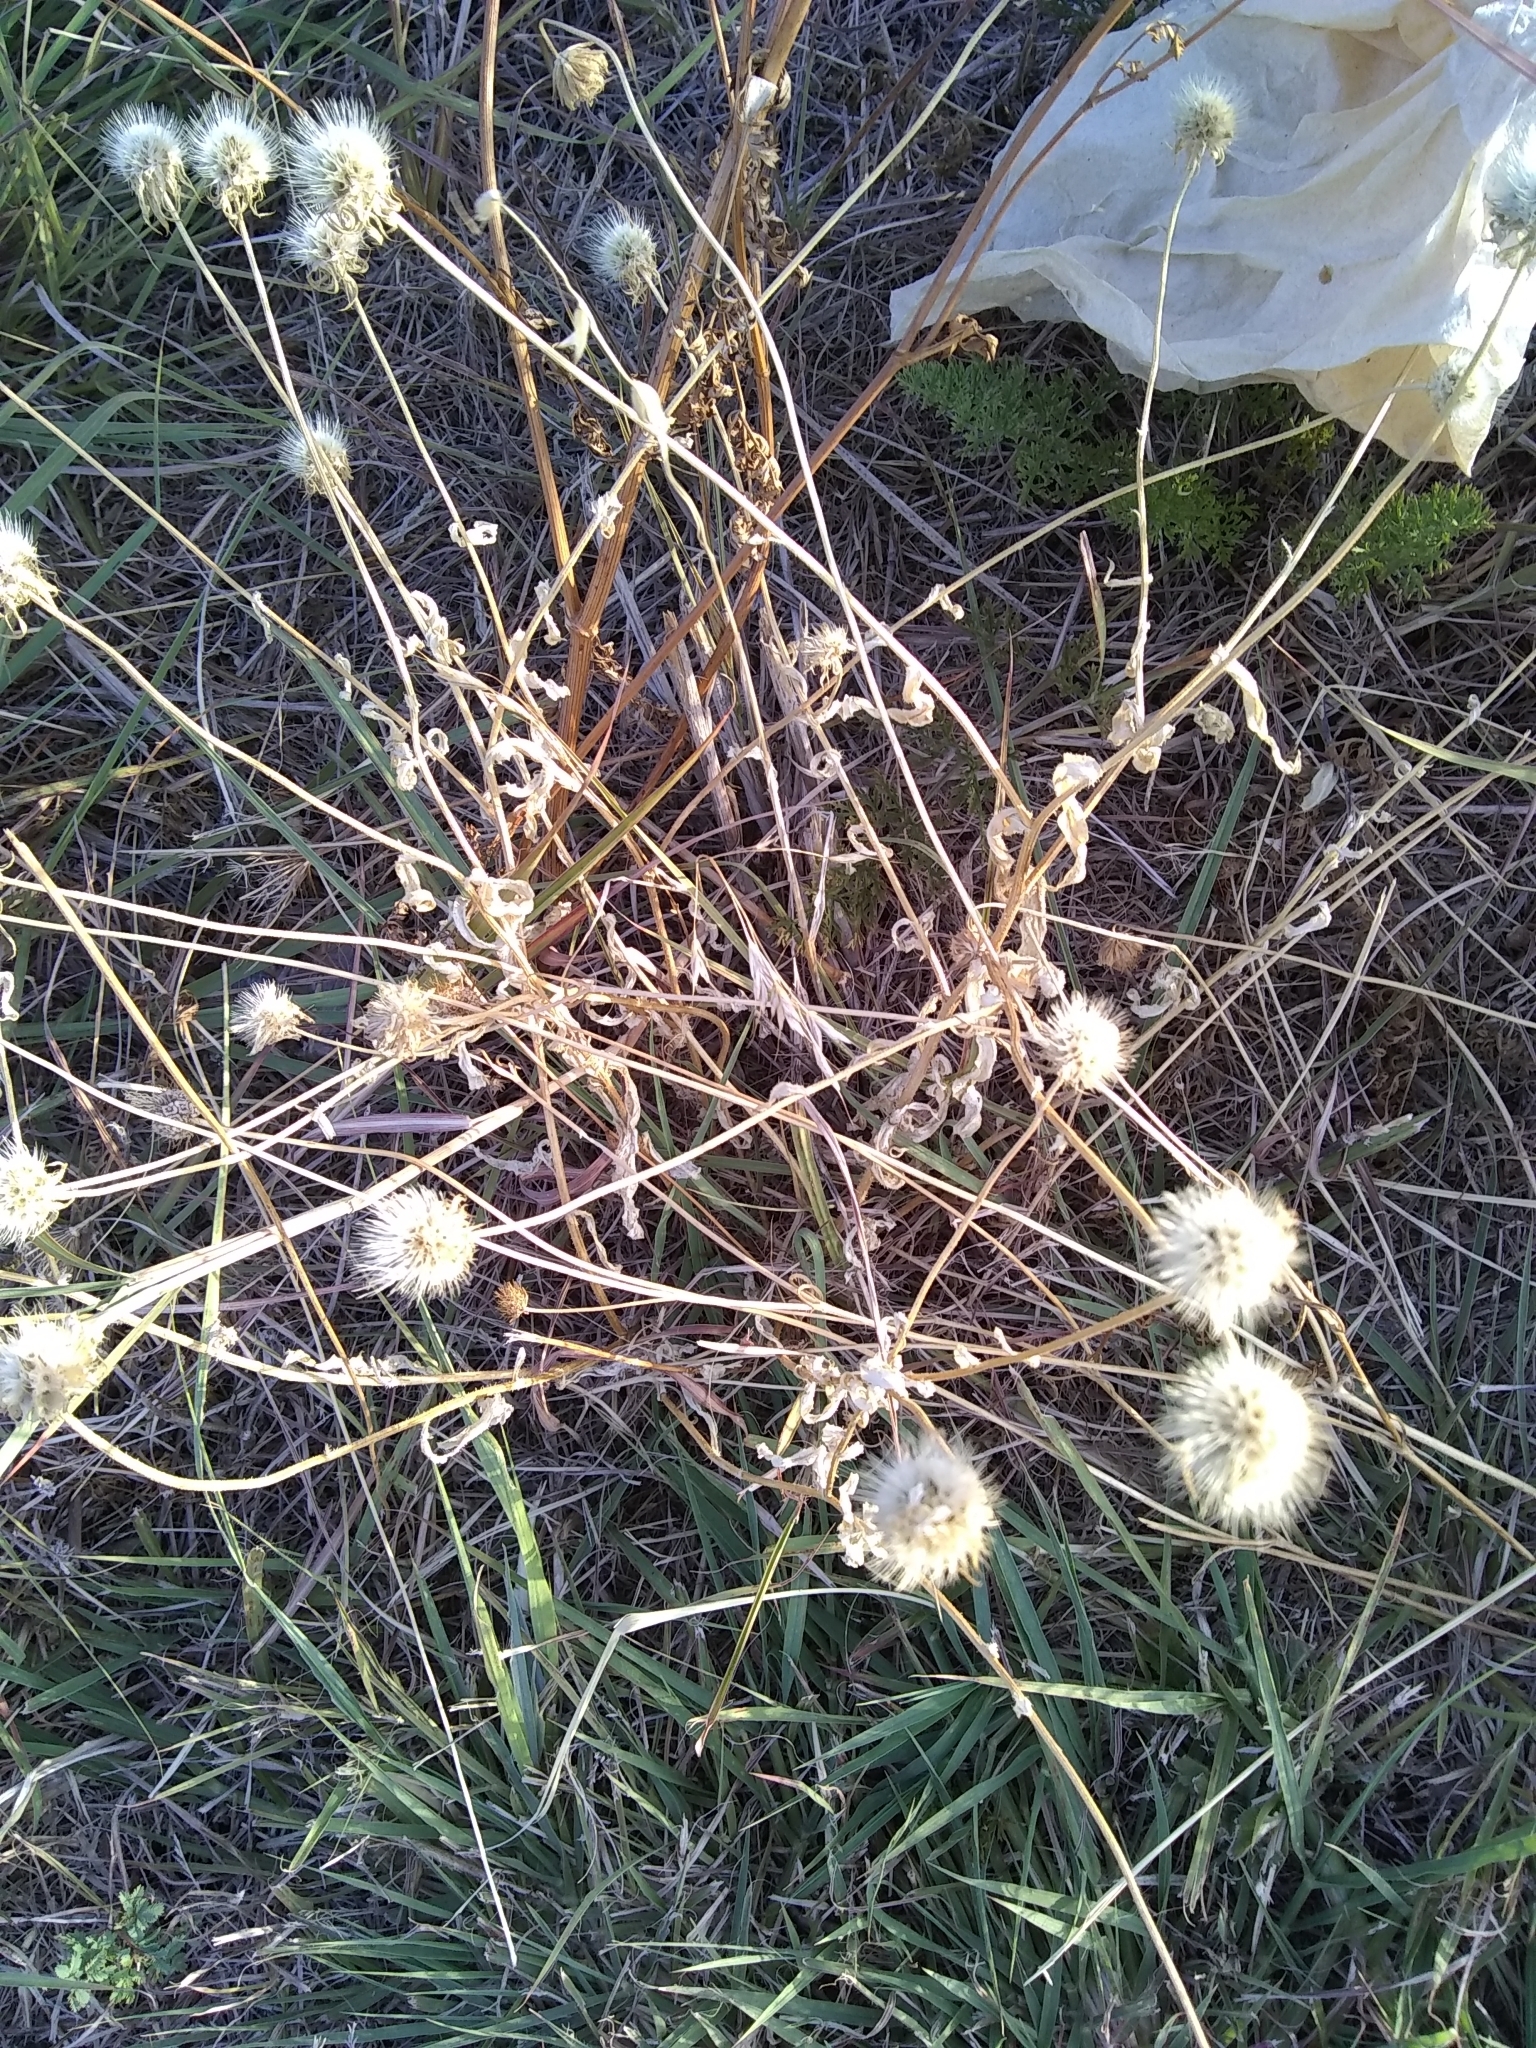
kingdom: Plantae
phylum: Tracheophyta
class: Magnoliopsida
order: Asterales
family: Asteraceae
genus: Gaillardia
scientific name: Gaillardia pulchella
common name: Firewheel
